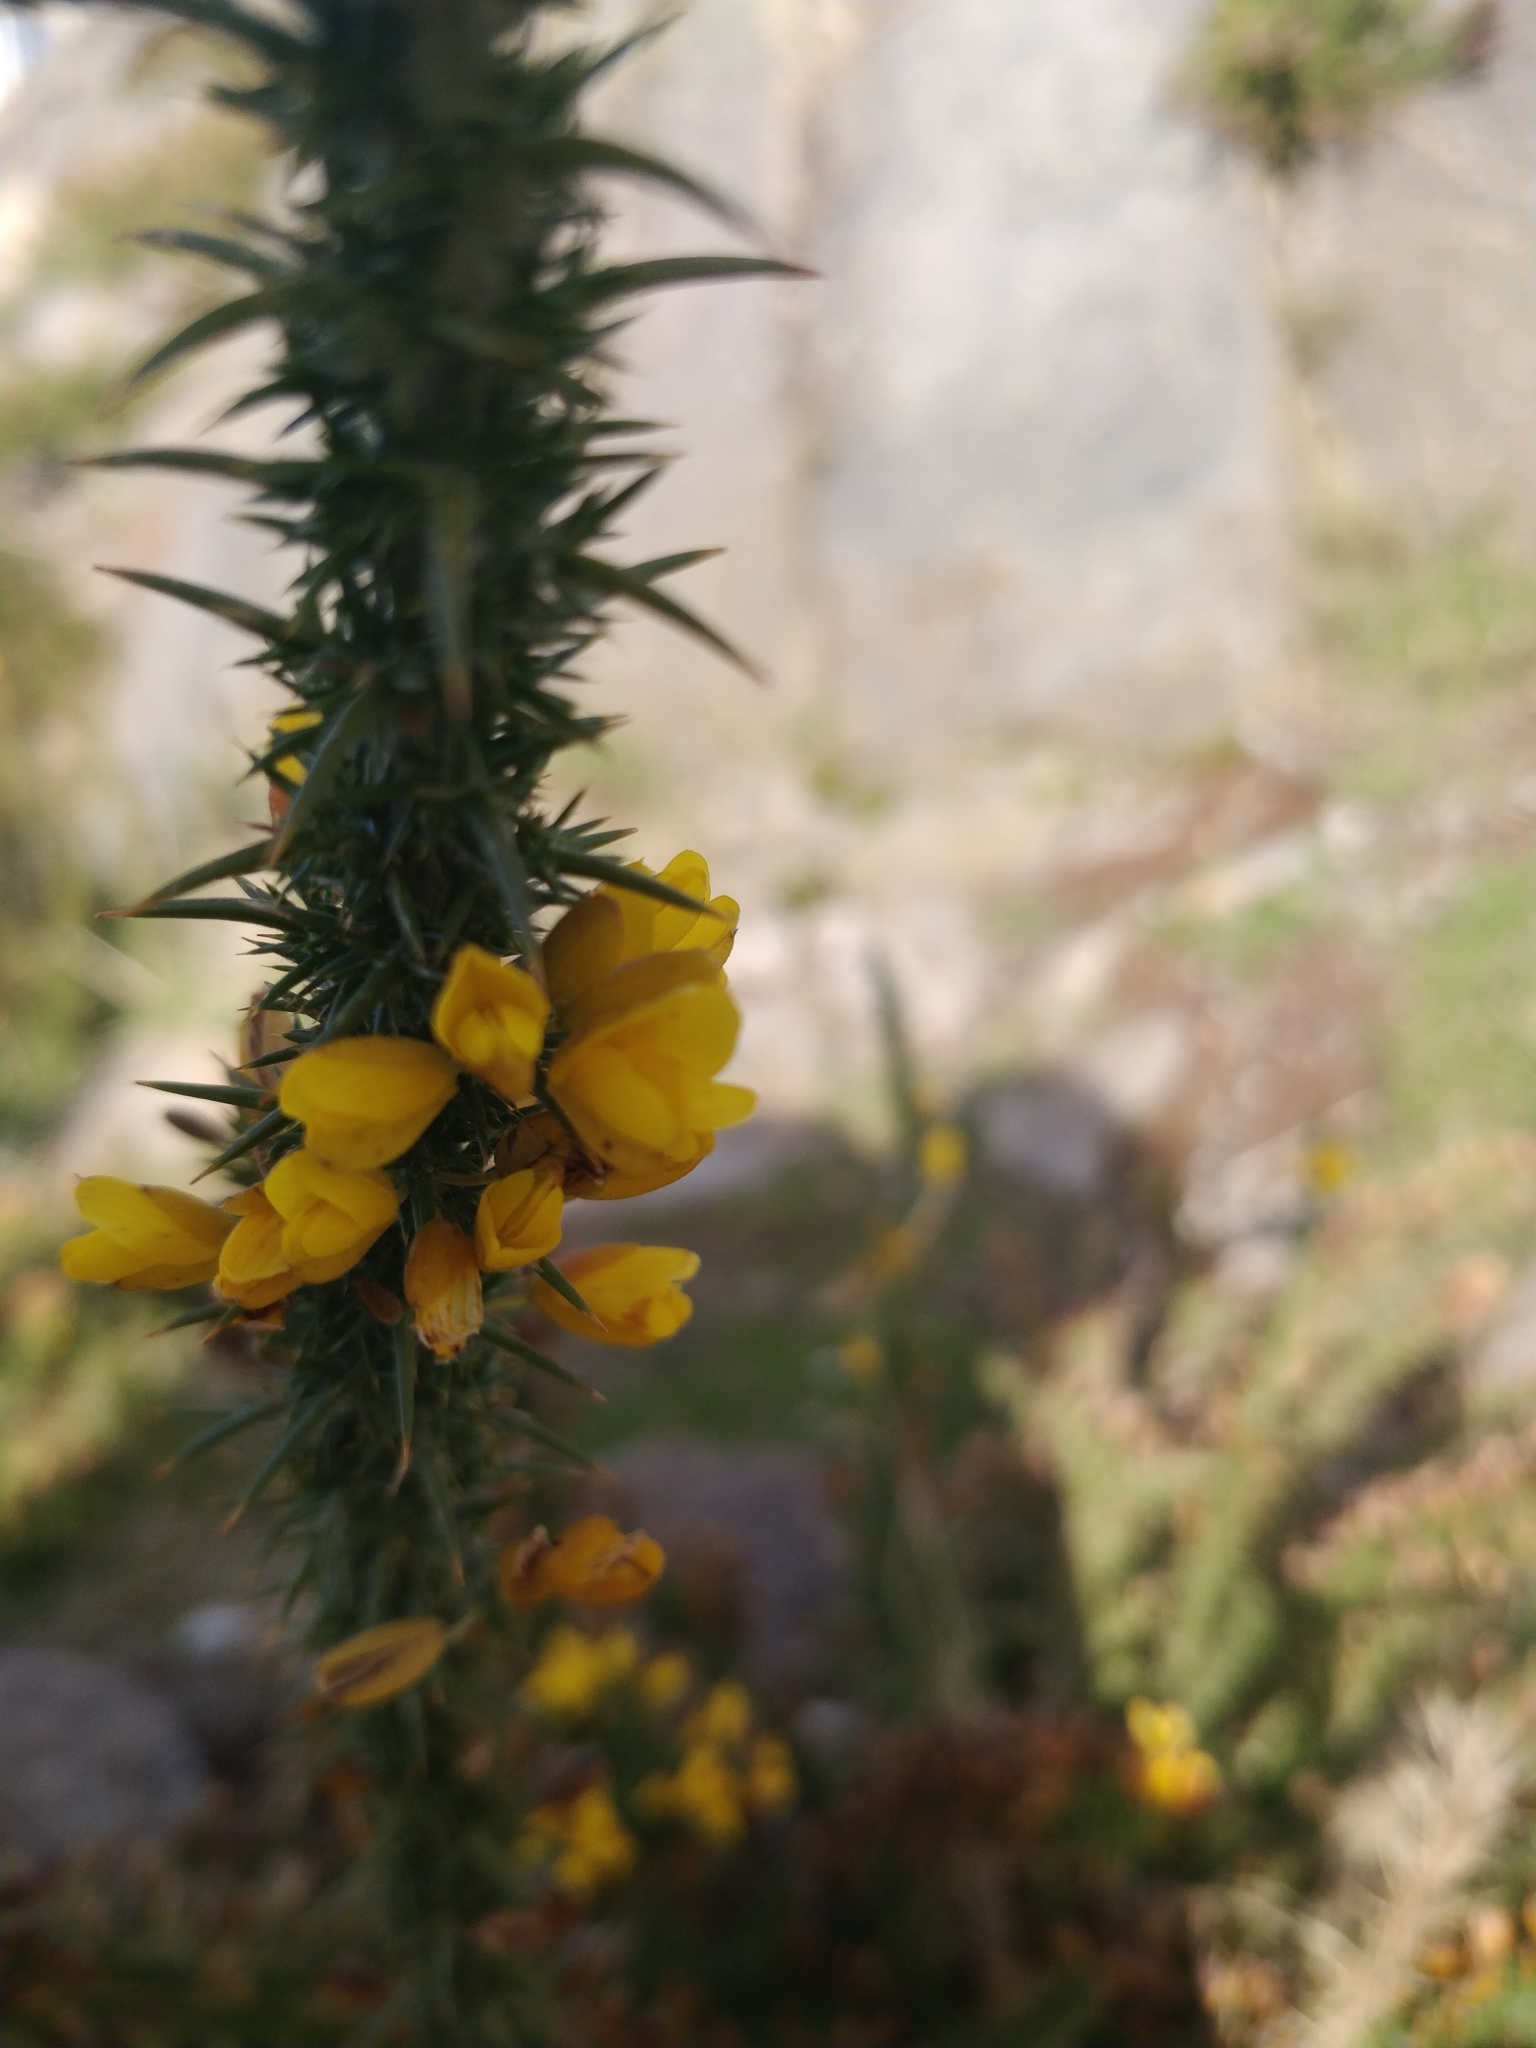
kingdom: Plantae
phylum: Tracheophyta
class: Magnoliopsida
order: Fabales
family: Fabaceae
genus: Ulex
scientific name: Ulex europaeus
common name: Common gorse
